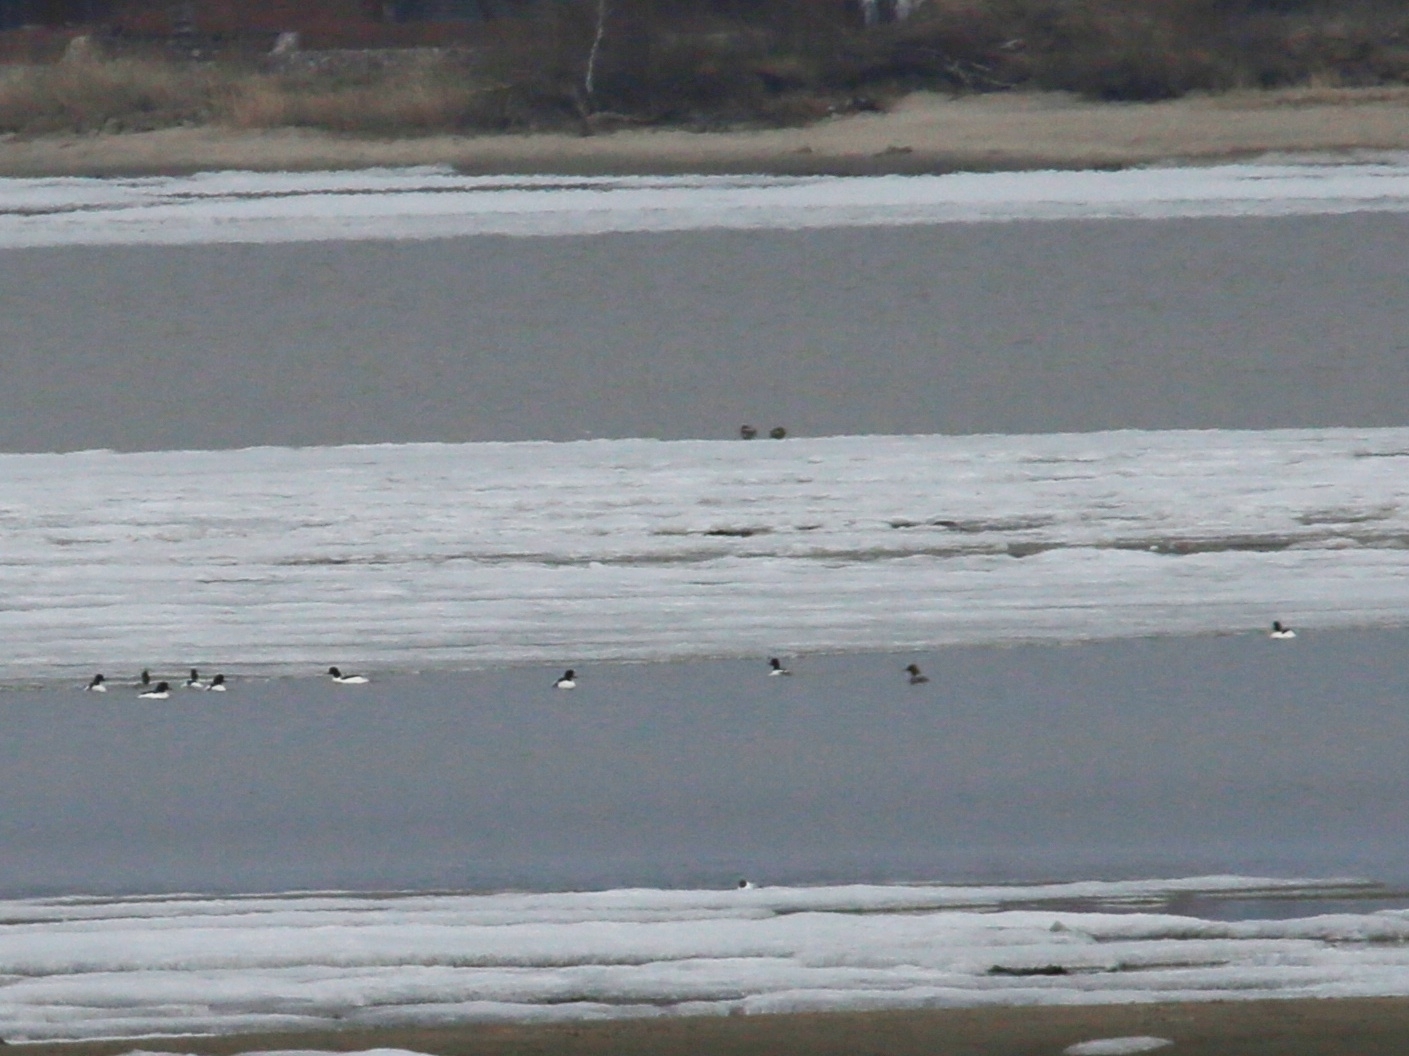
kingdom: Animalia
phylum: Chordata
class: Aves
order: Anseriformes
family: Anatidae
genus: Mergus
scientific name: Mergus merganser
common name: Common merganser
